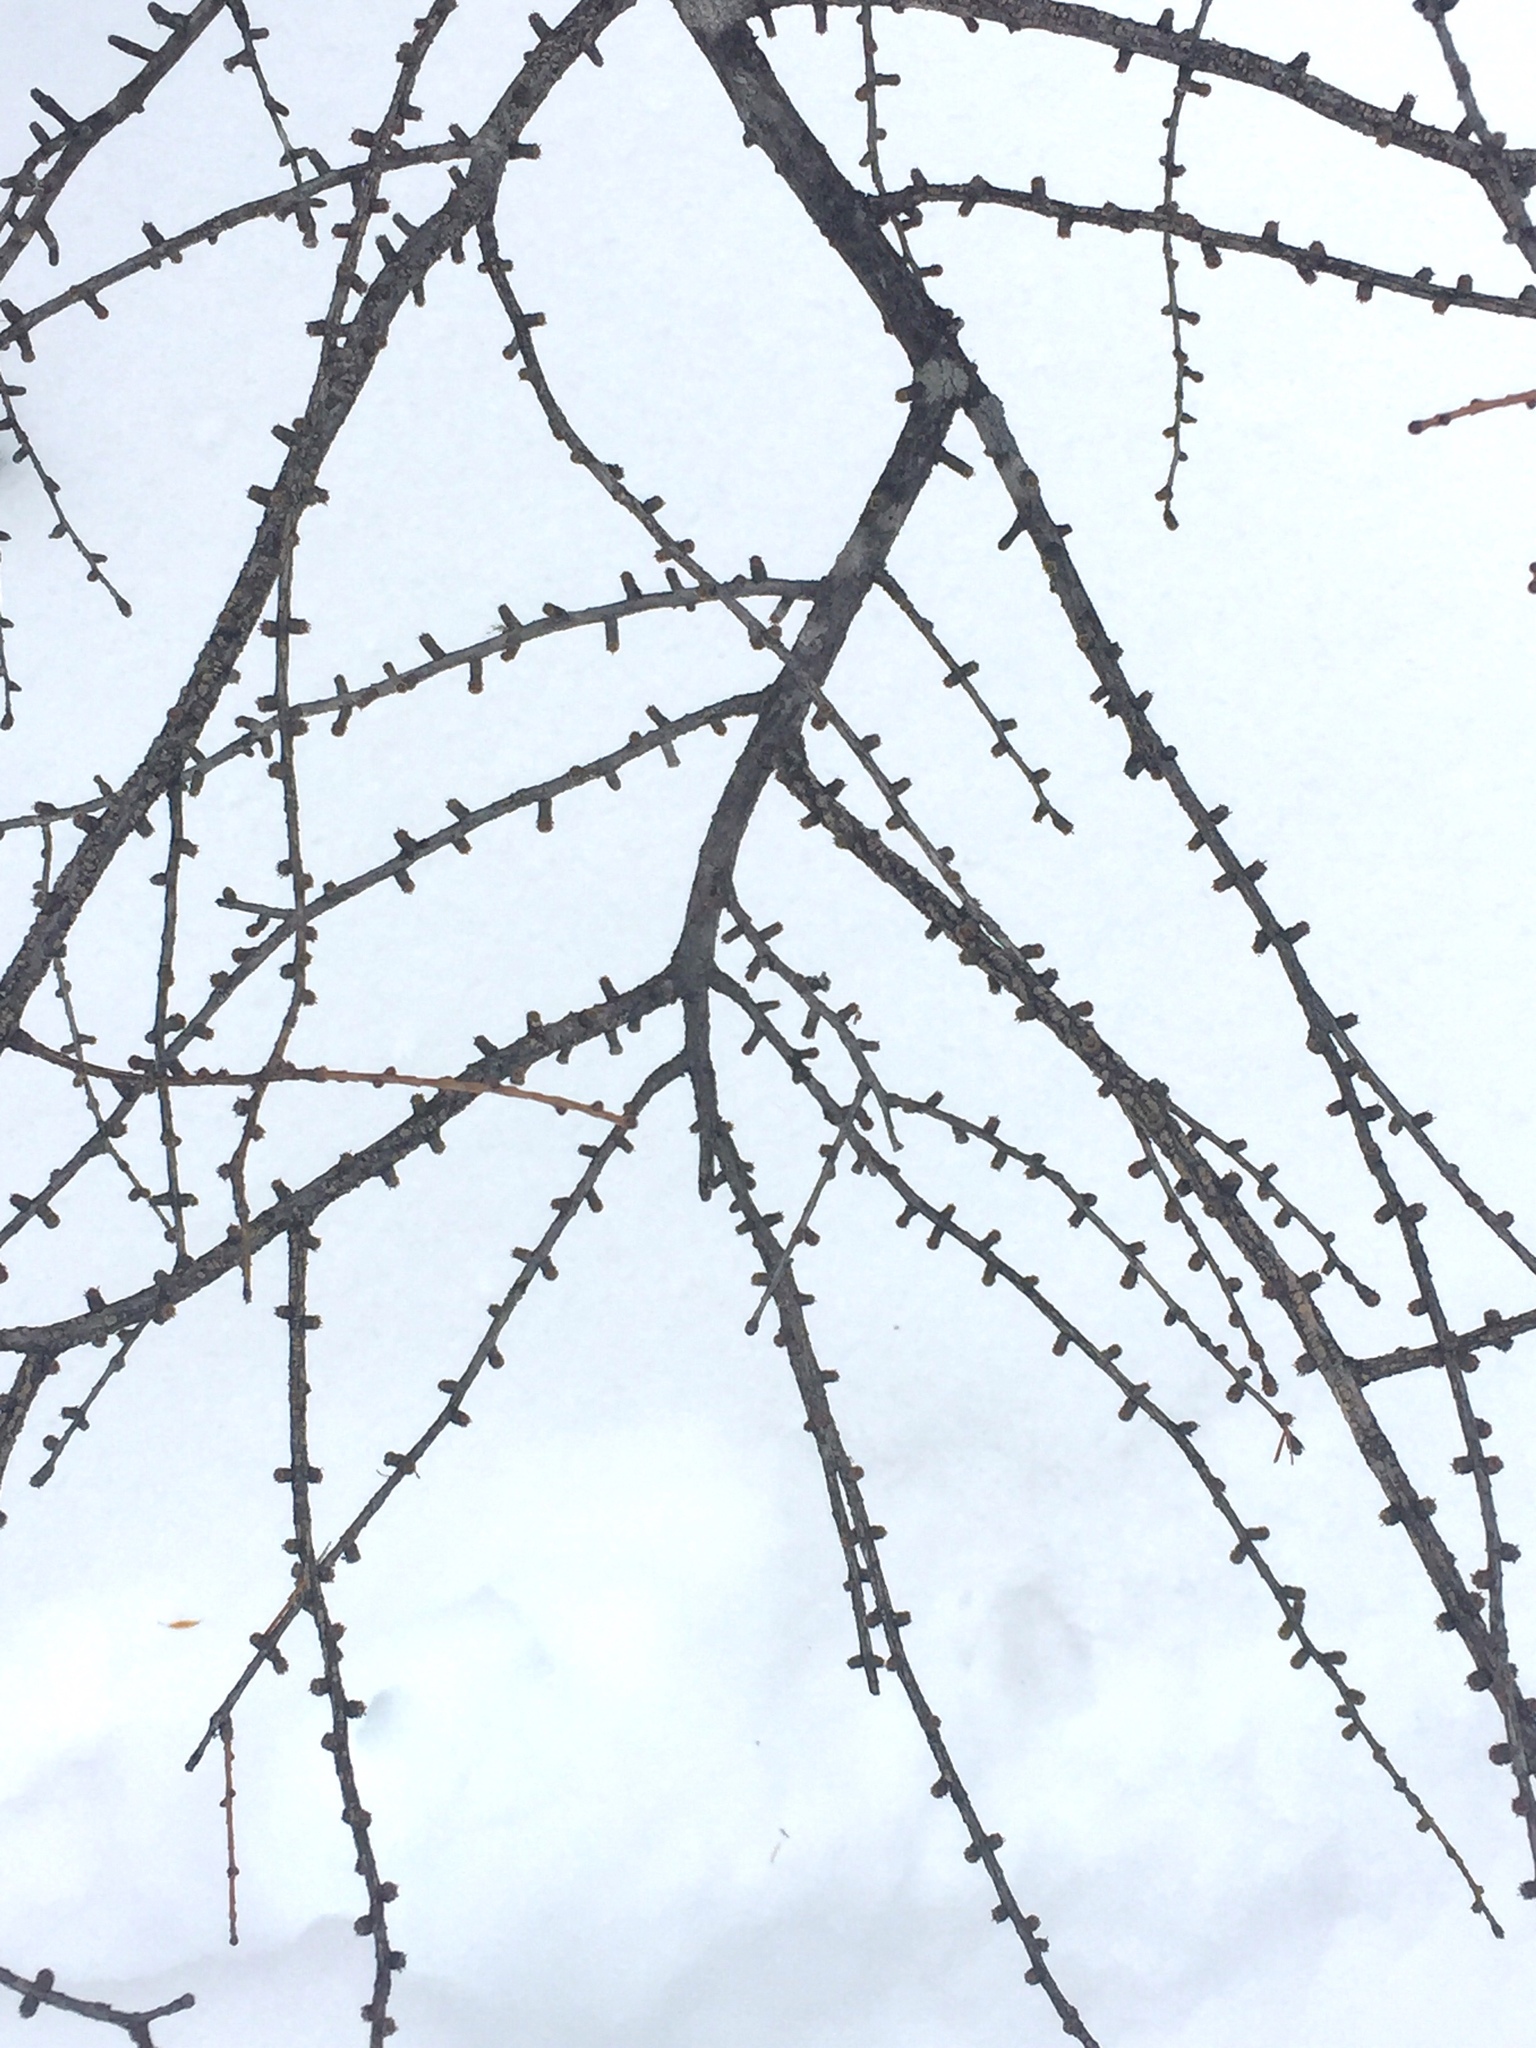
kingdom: Plantae
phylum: Tracheophyta
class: Pinopsida
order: Pinales
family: Pinaceae
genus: Larix
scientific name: Larix laricina
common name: American larch
